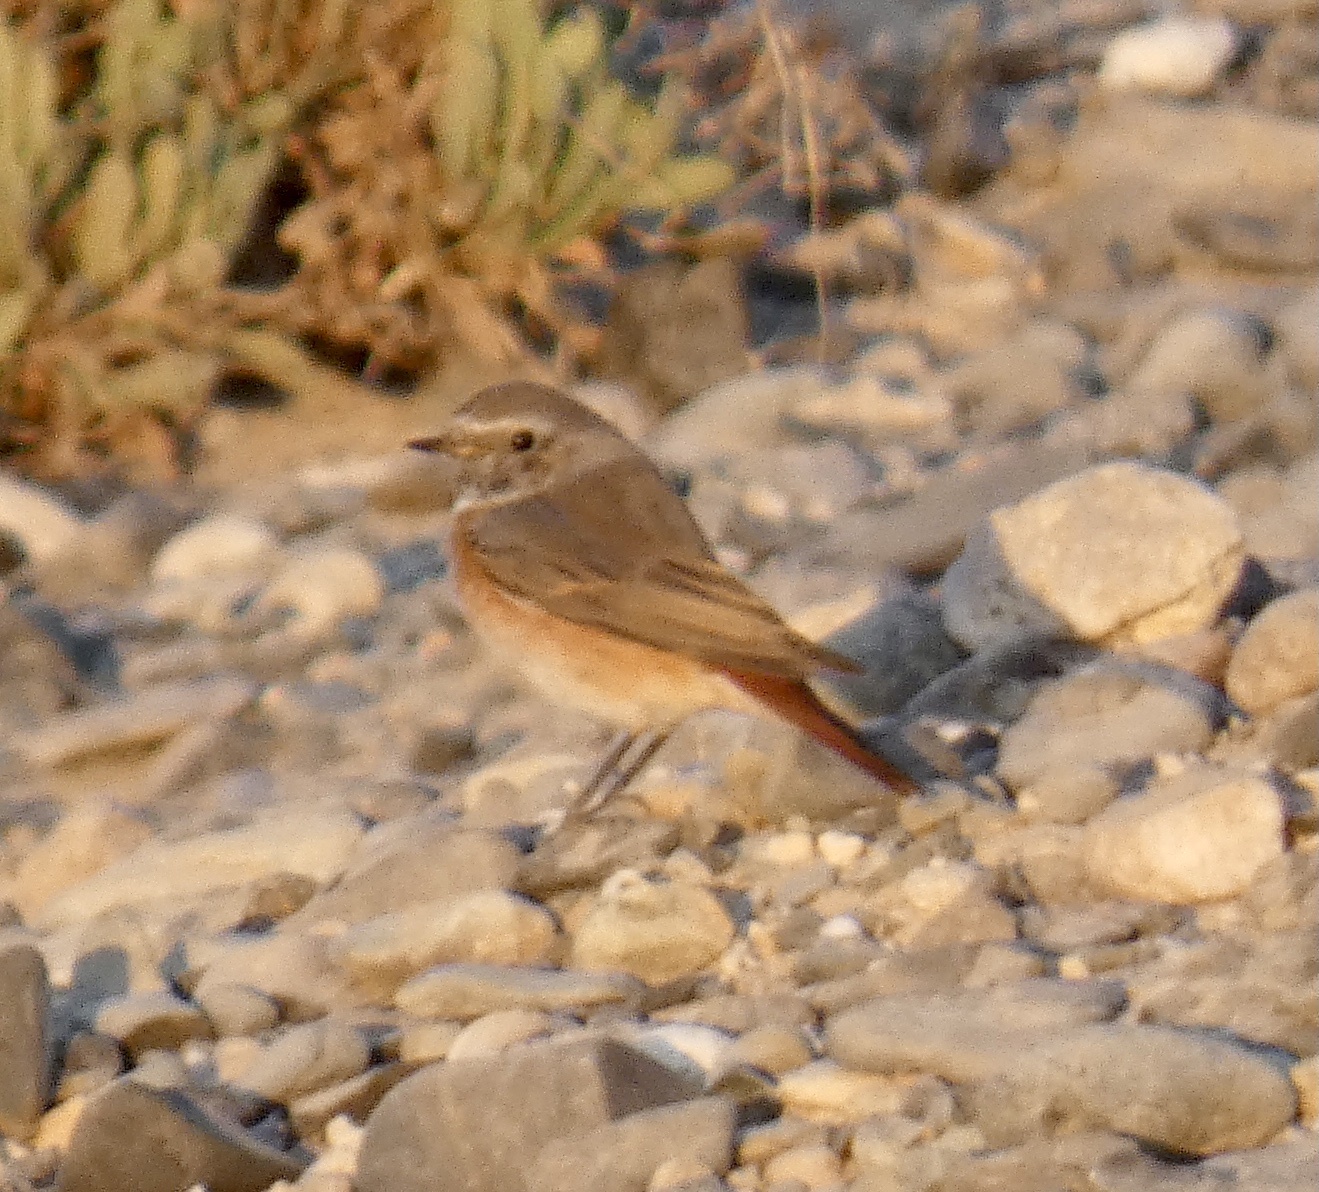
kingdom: Animalia
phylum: Chordata
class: Aves
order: Passeriformes
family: Muscicapidae
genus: Phoenicurus
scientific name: Phoenicurus phoenicurus
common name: Common redstart
